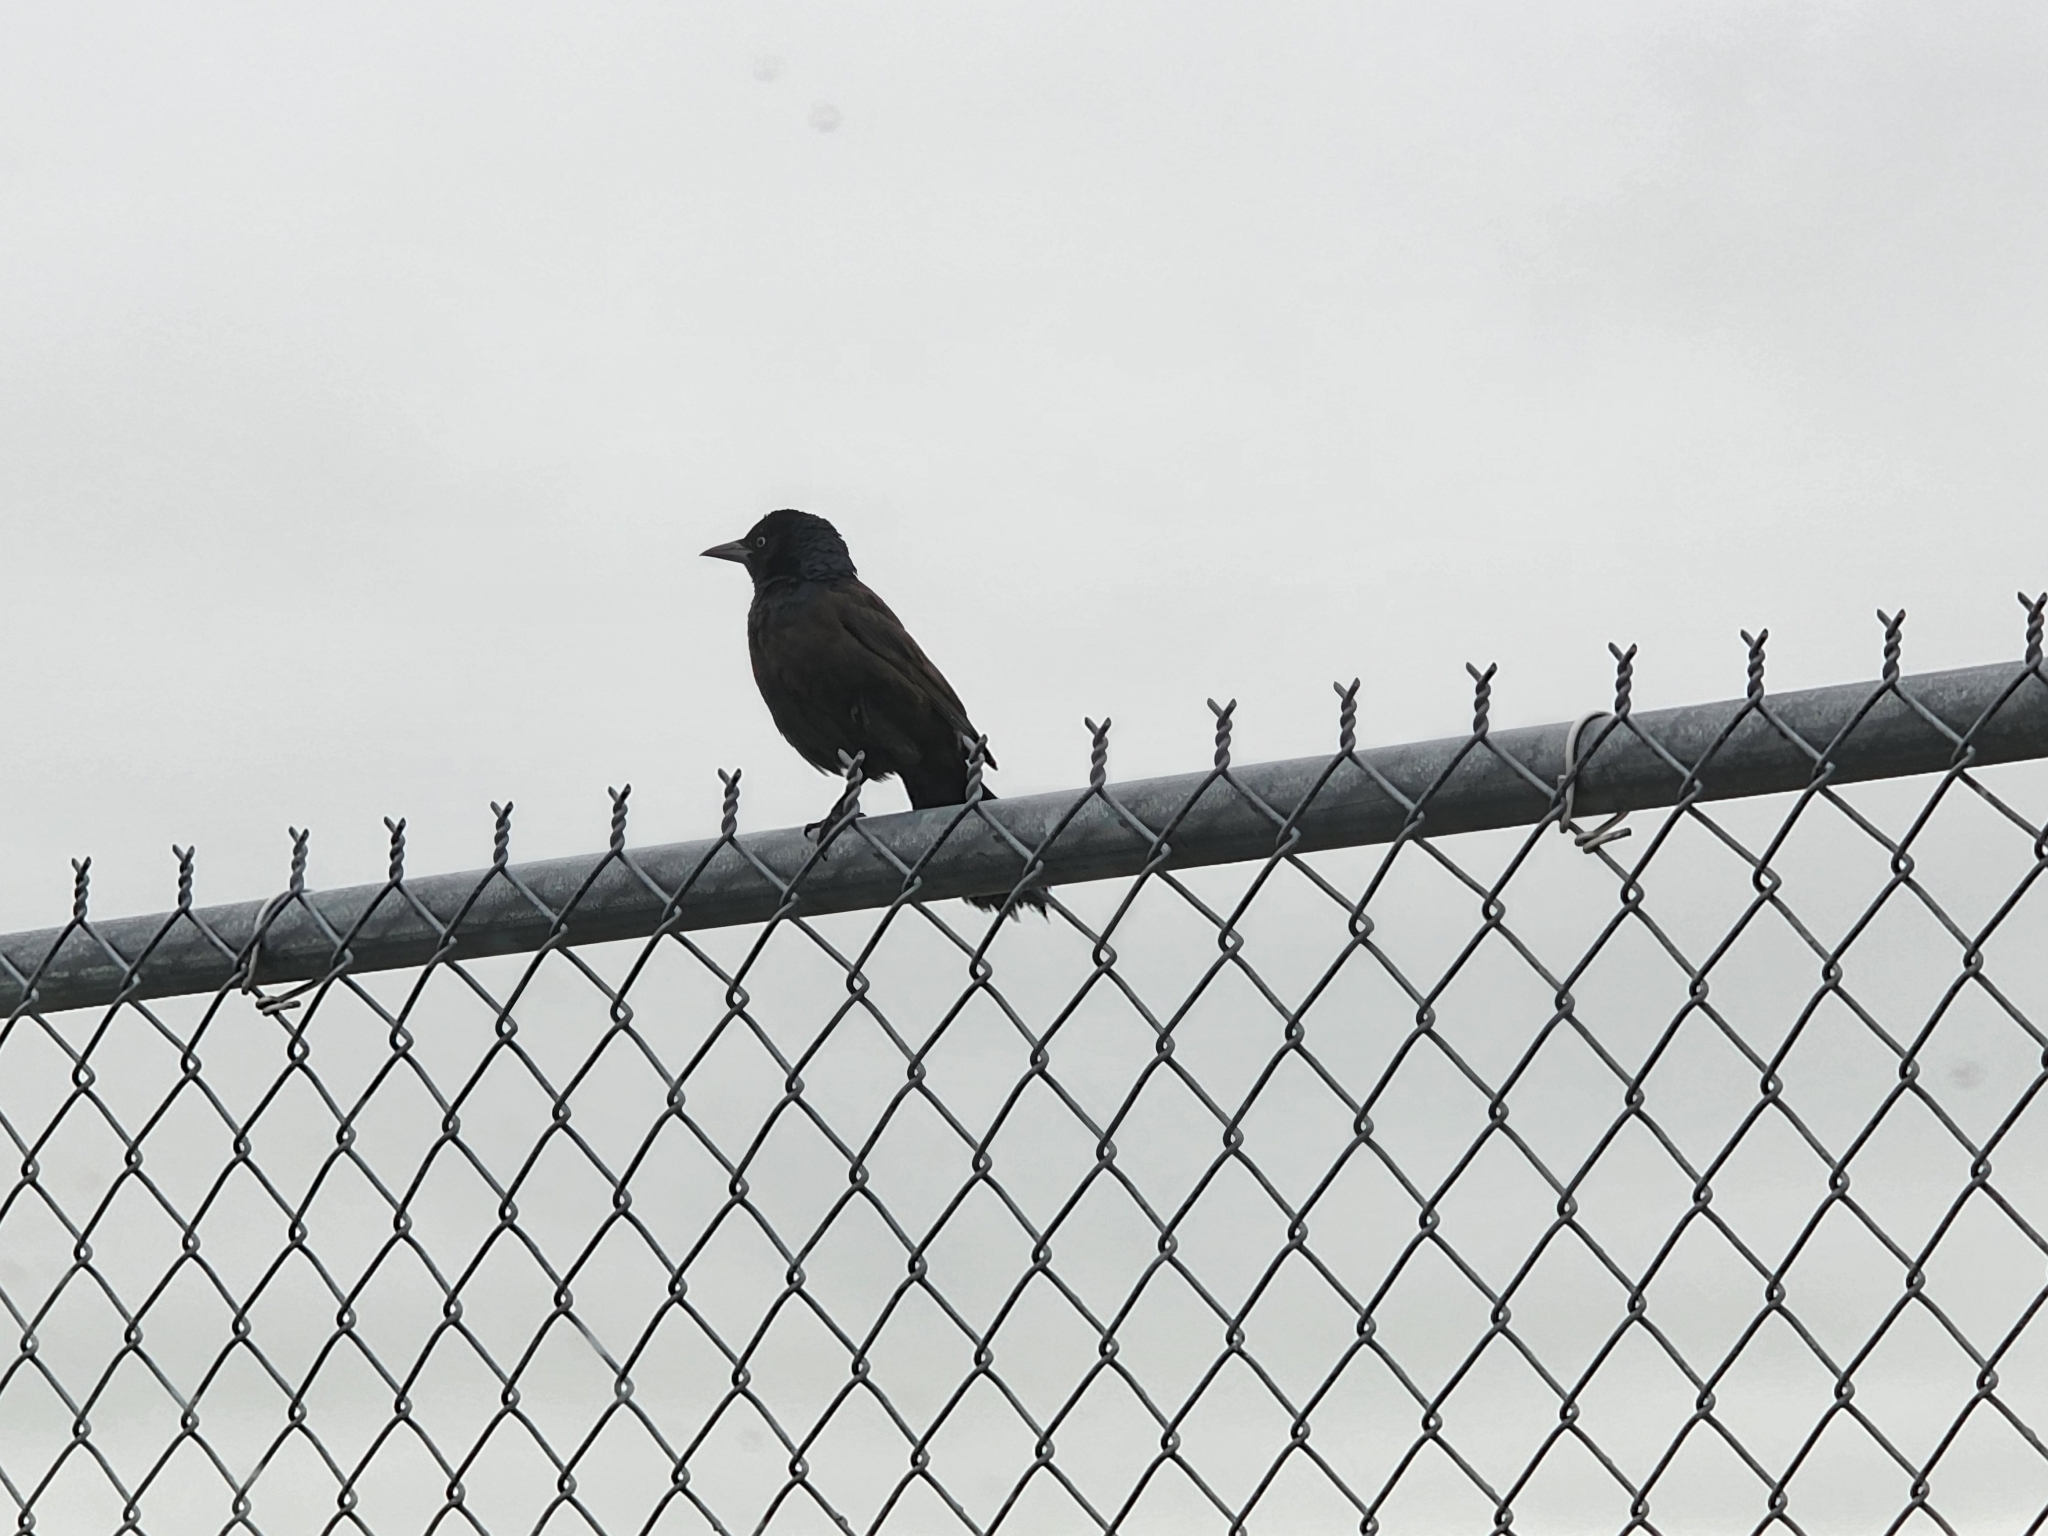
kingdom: Animalia
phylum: Chordata
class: Aves
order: Passeriformes
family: Icteridae
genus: Quiscalus
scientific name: Quiscalus quiscula
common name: Common grackle
